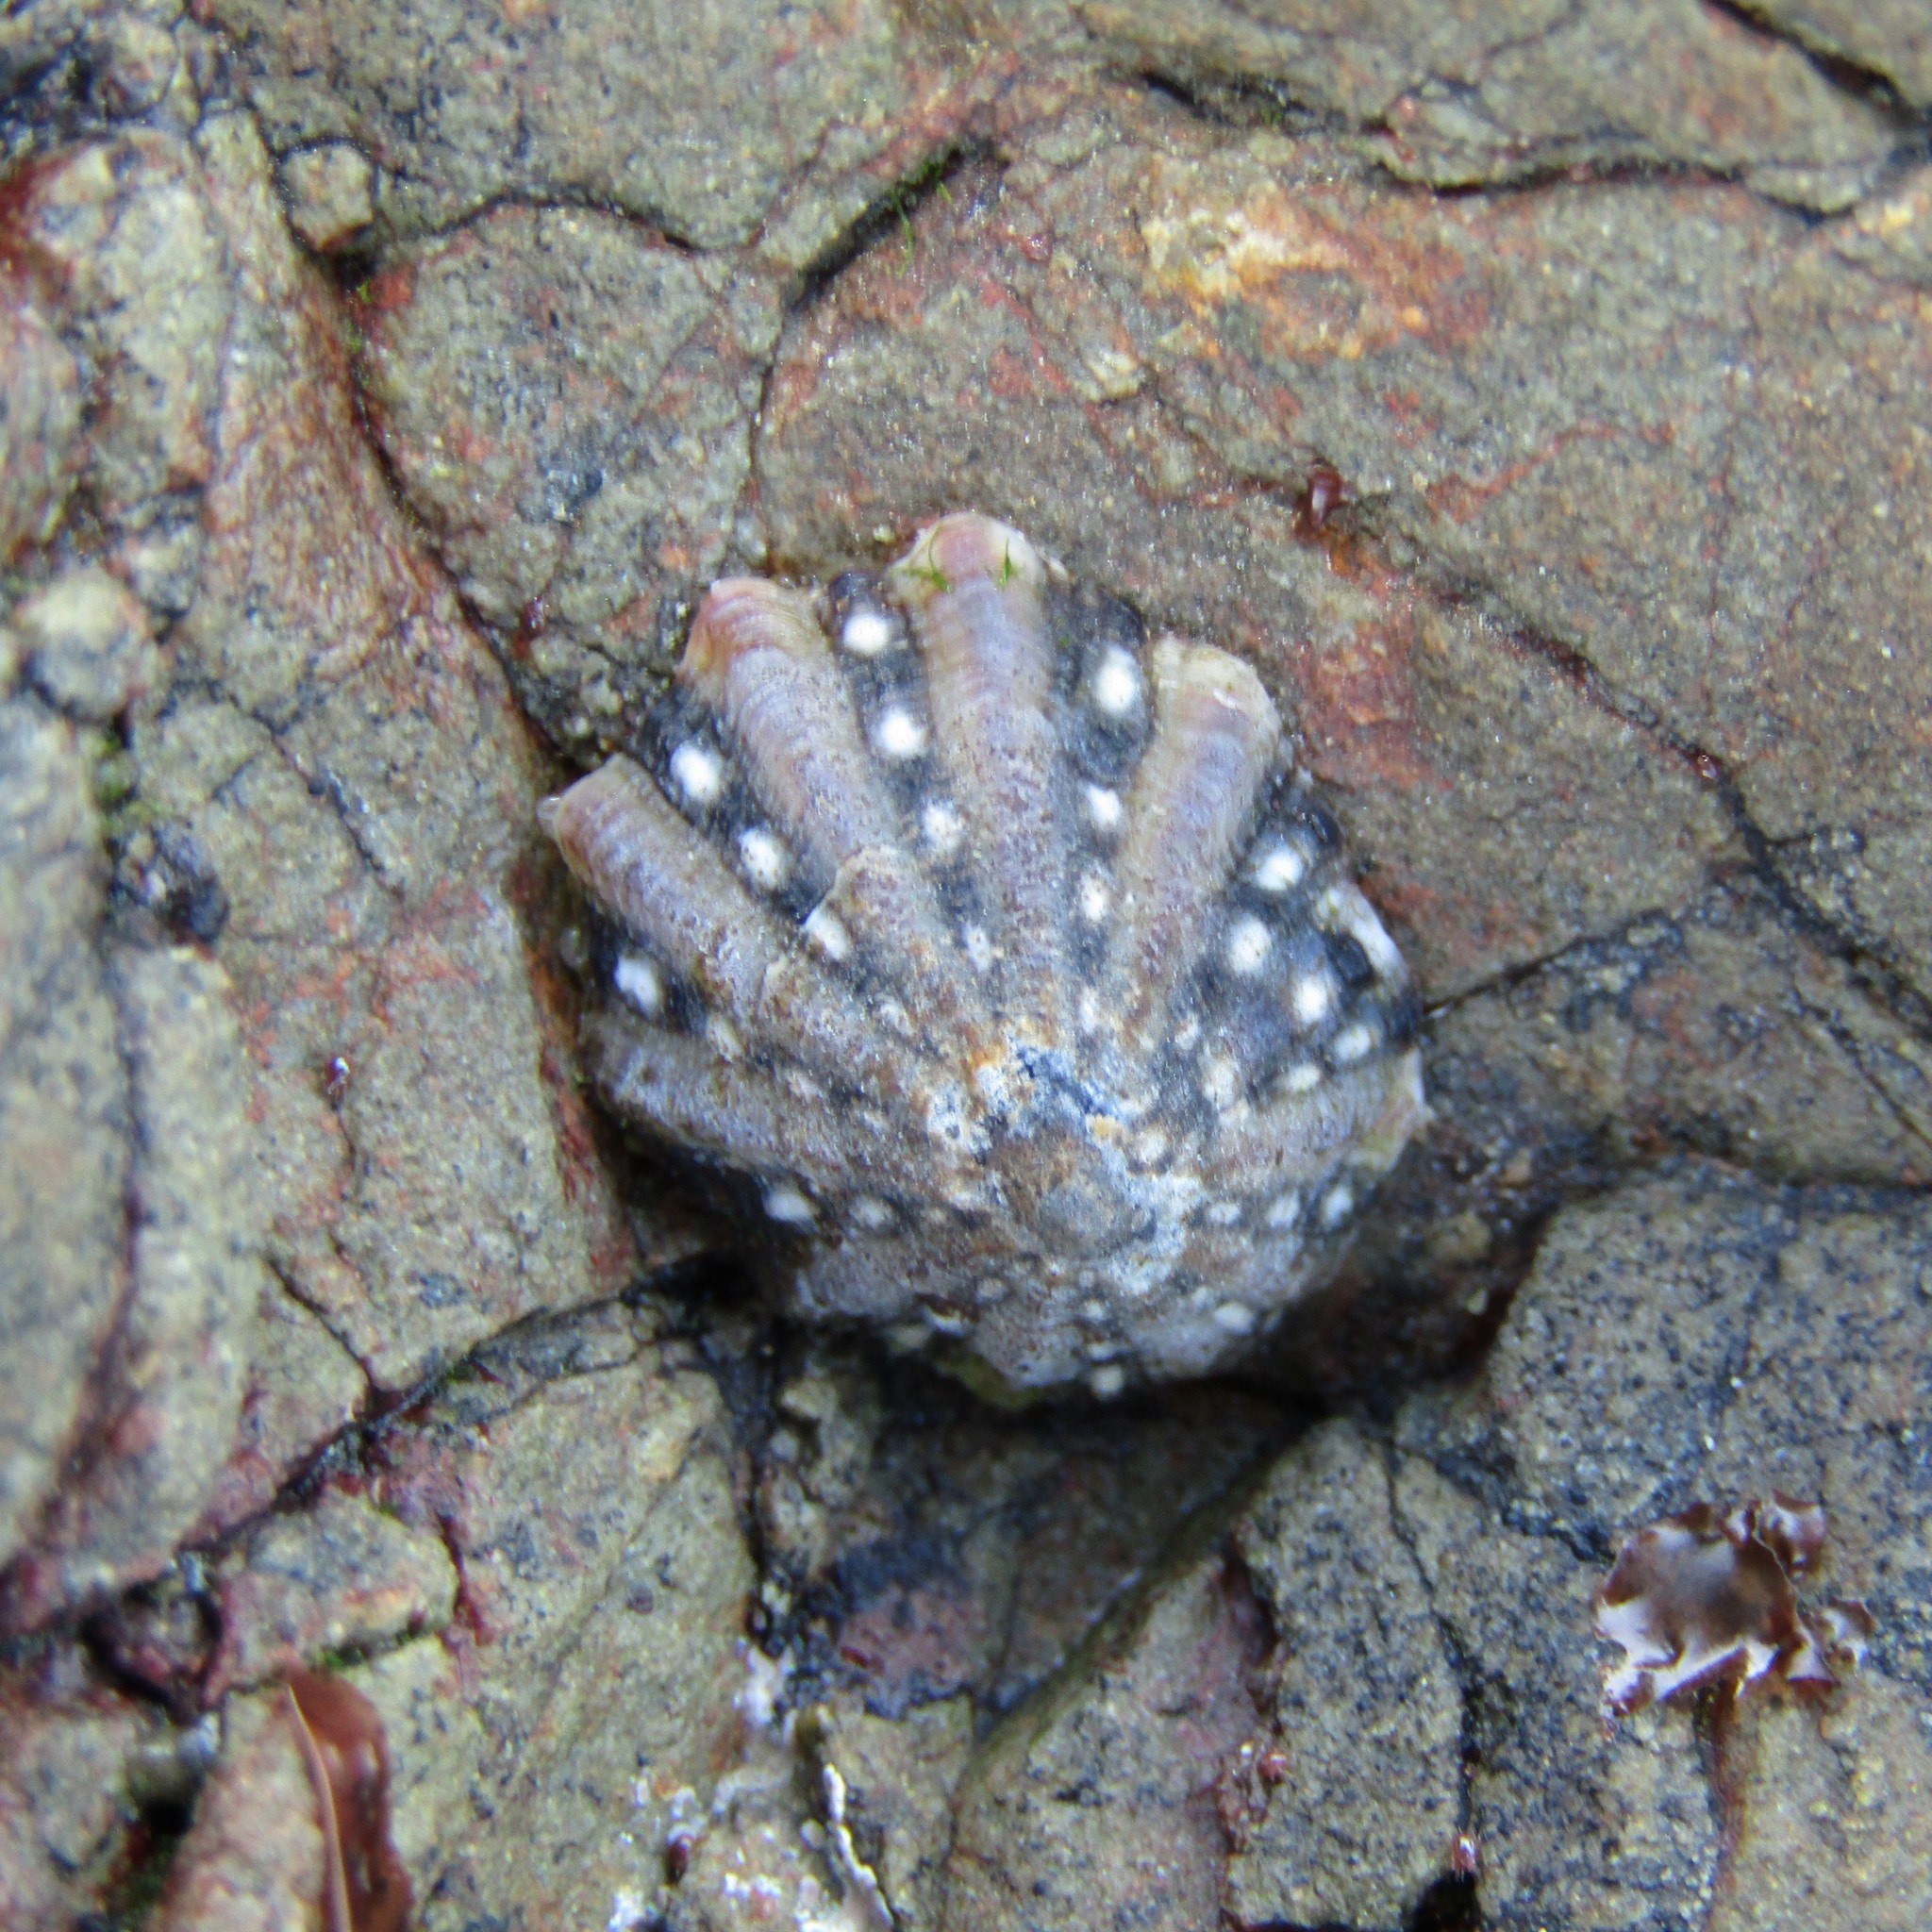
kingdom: Animalia
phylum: Mollusca
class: Gastropoda
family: Nacellidae
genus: Cellana
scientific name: Cellana ornata
